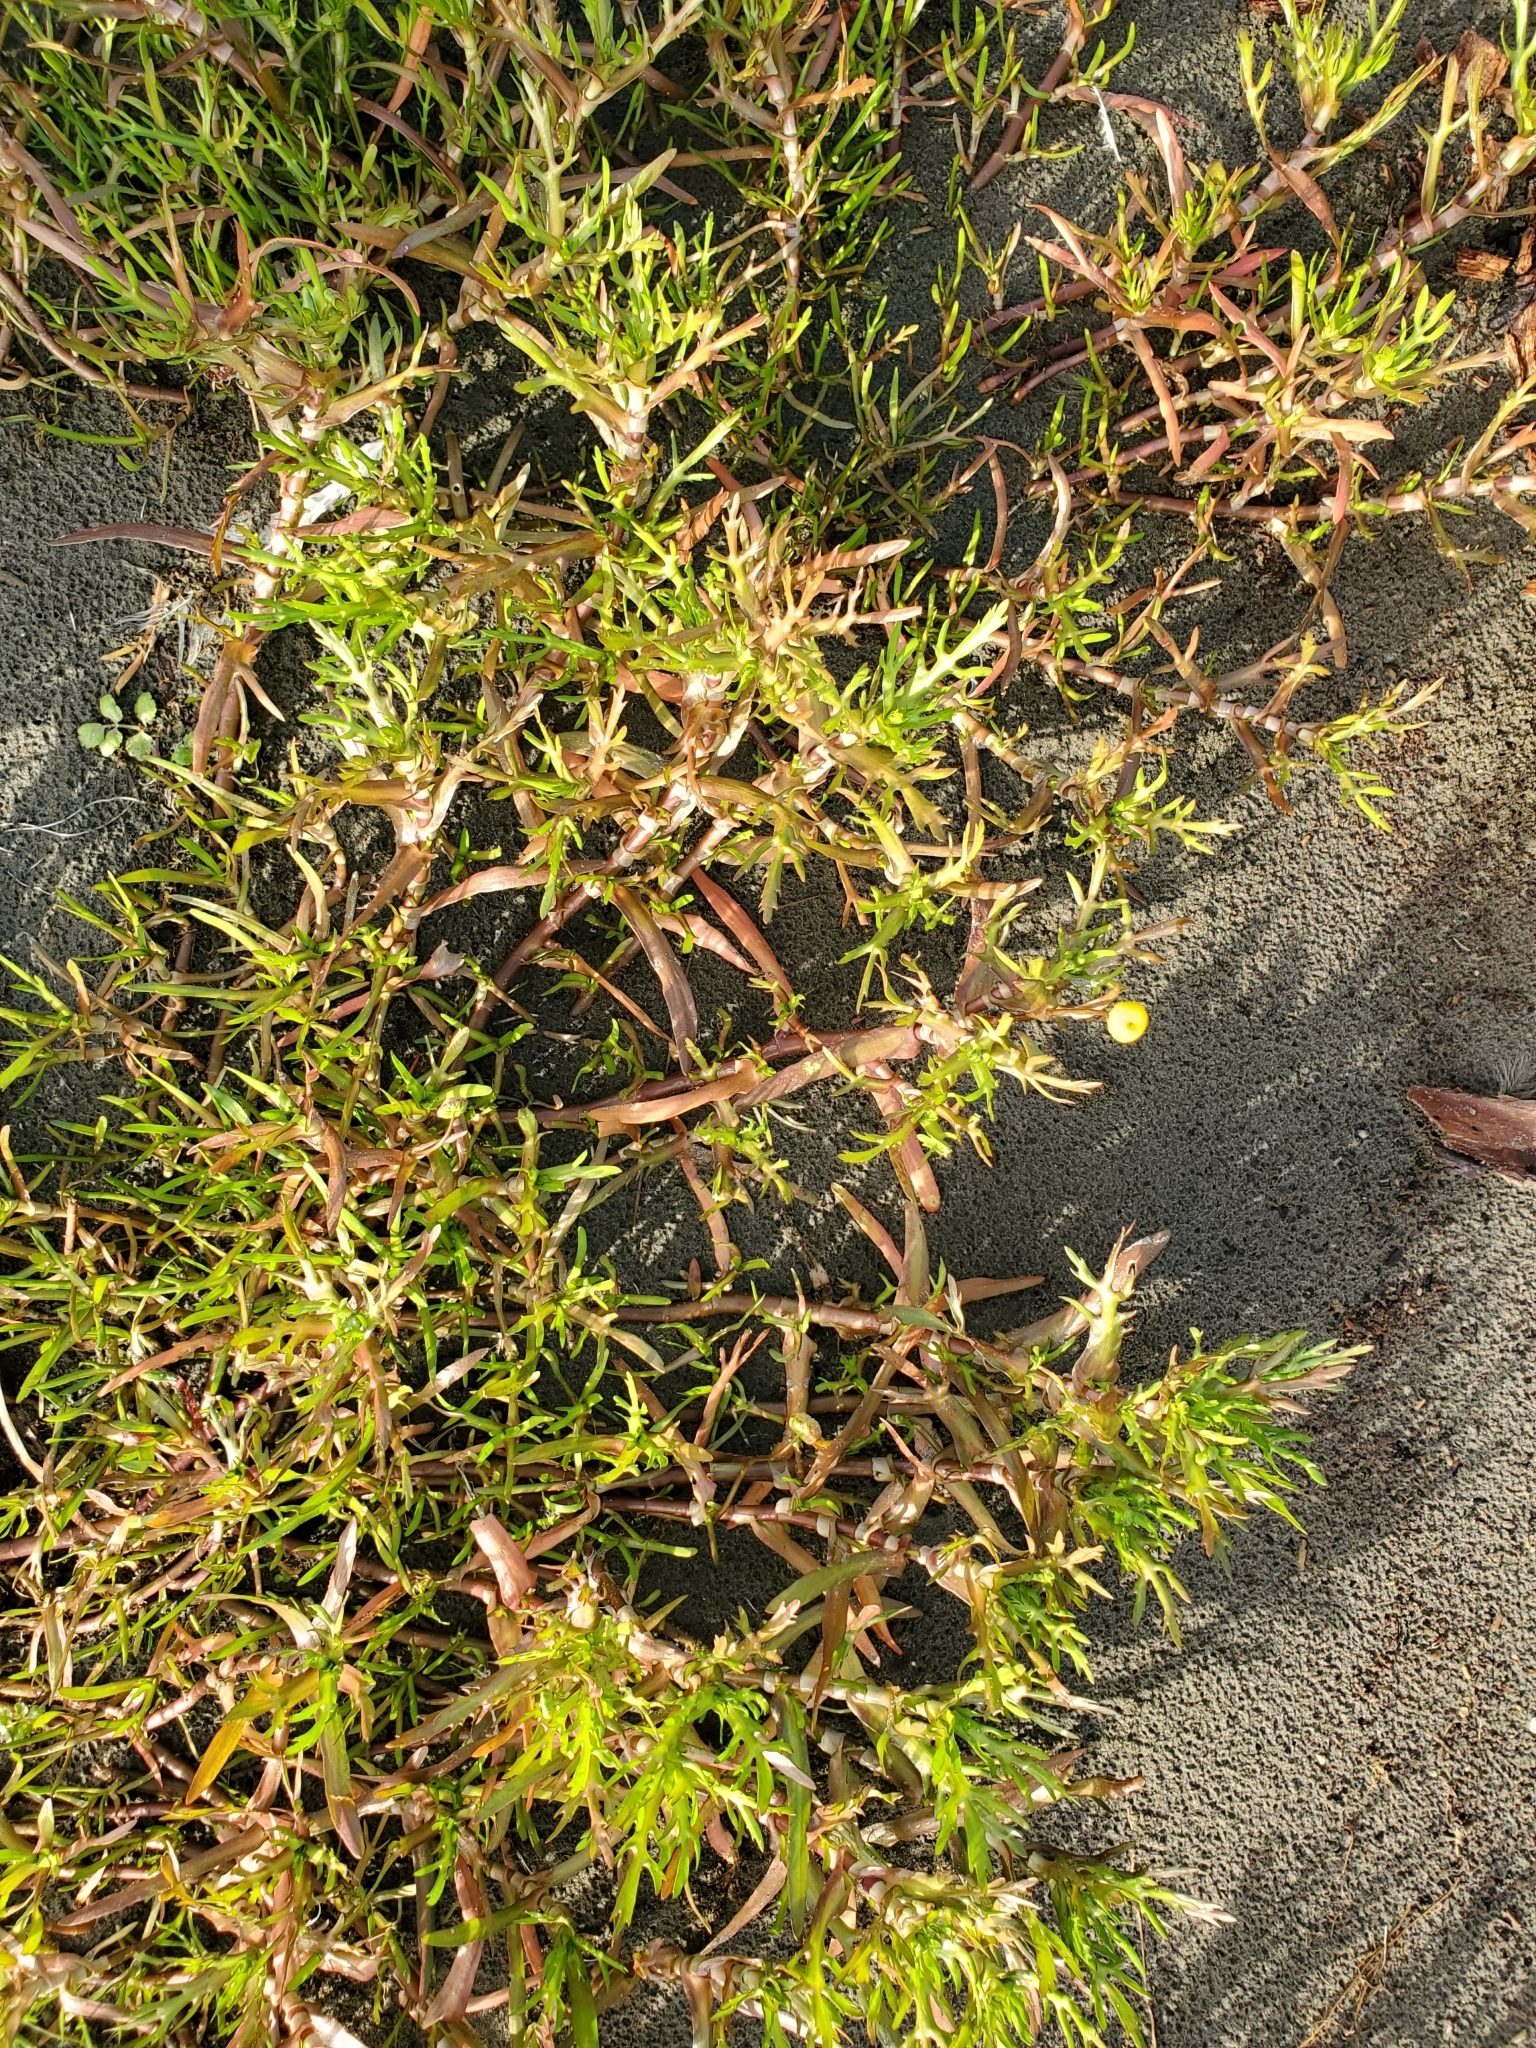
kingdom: Plantae
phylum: Tracheophyta
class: Magnoliopsida
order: Asterales
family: Asteraceae
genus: Cotula
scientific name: Cotula coronopifolia
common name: Buttonweed
